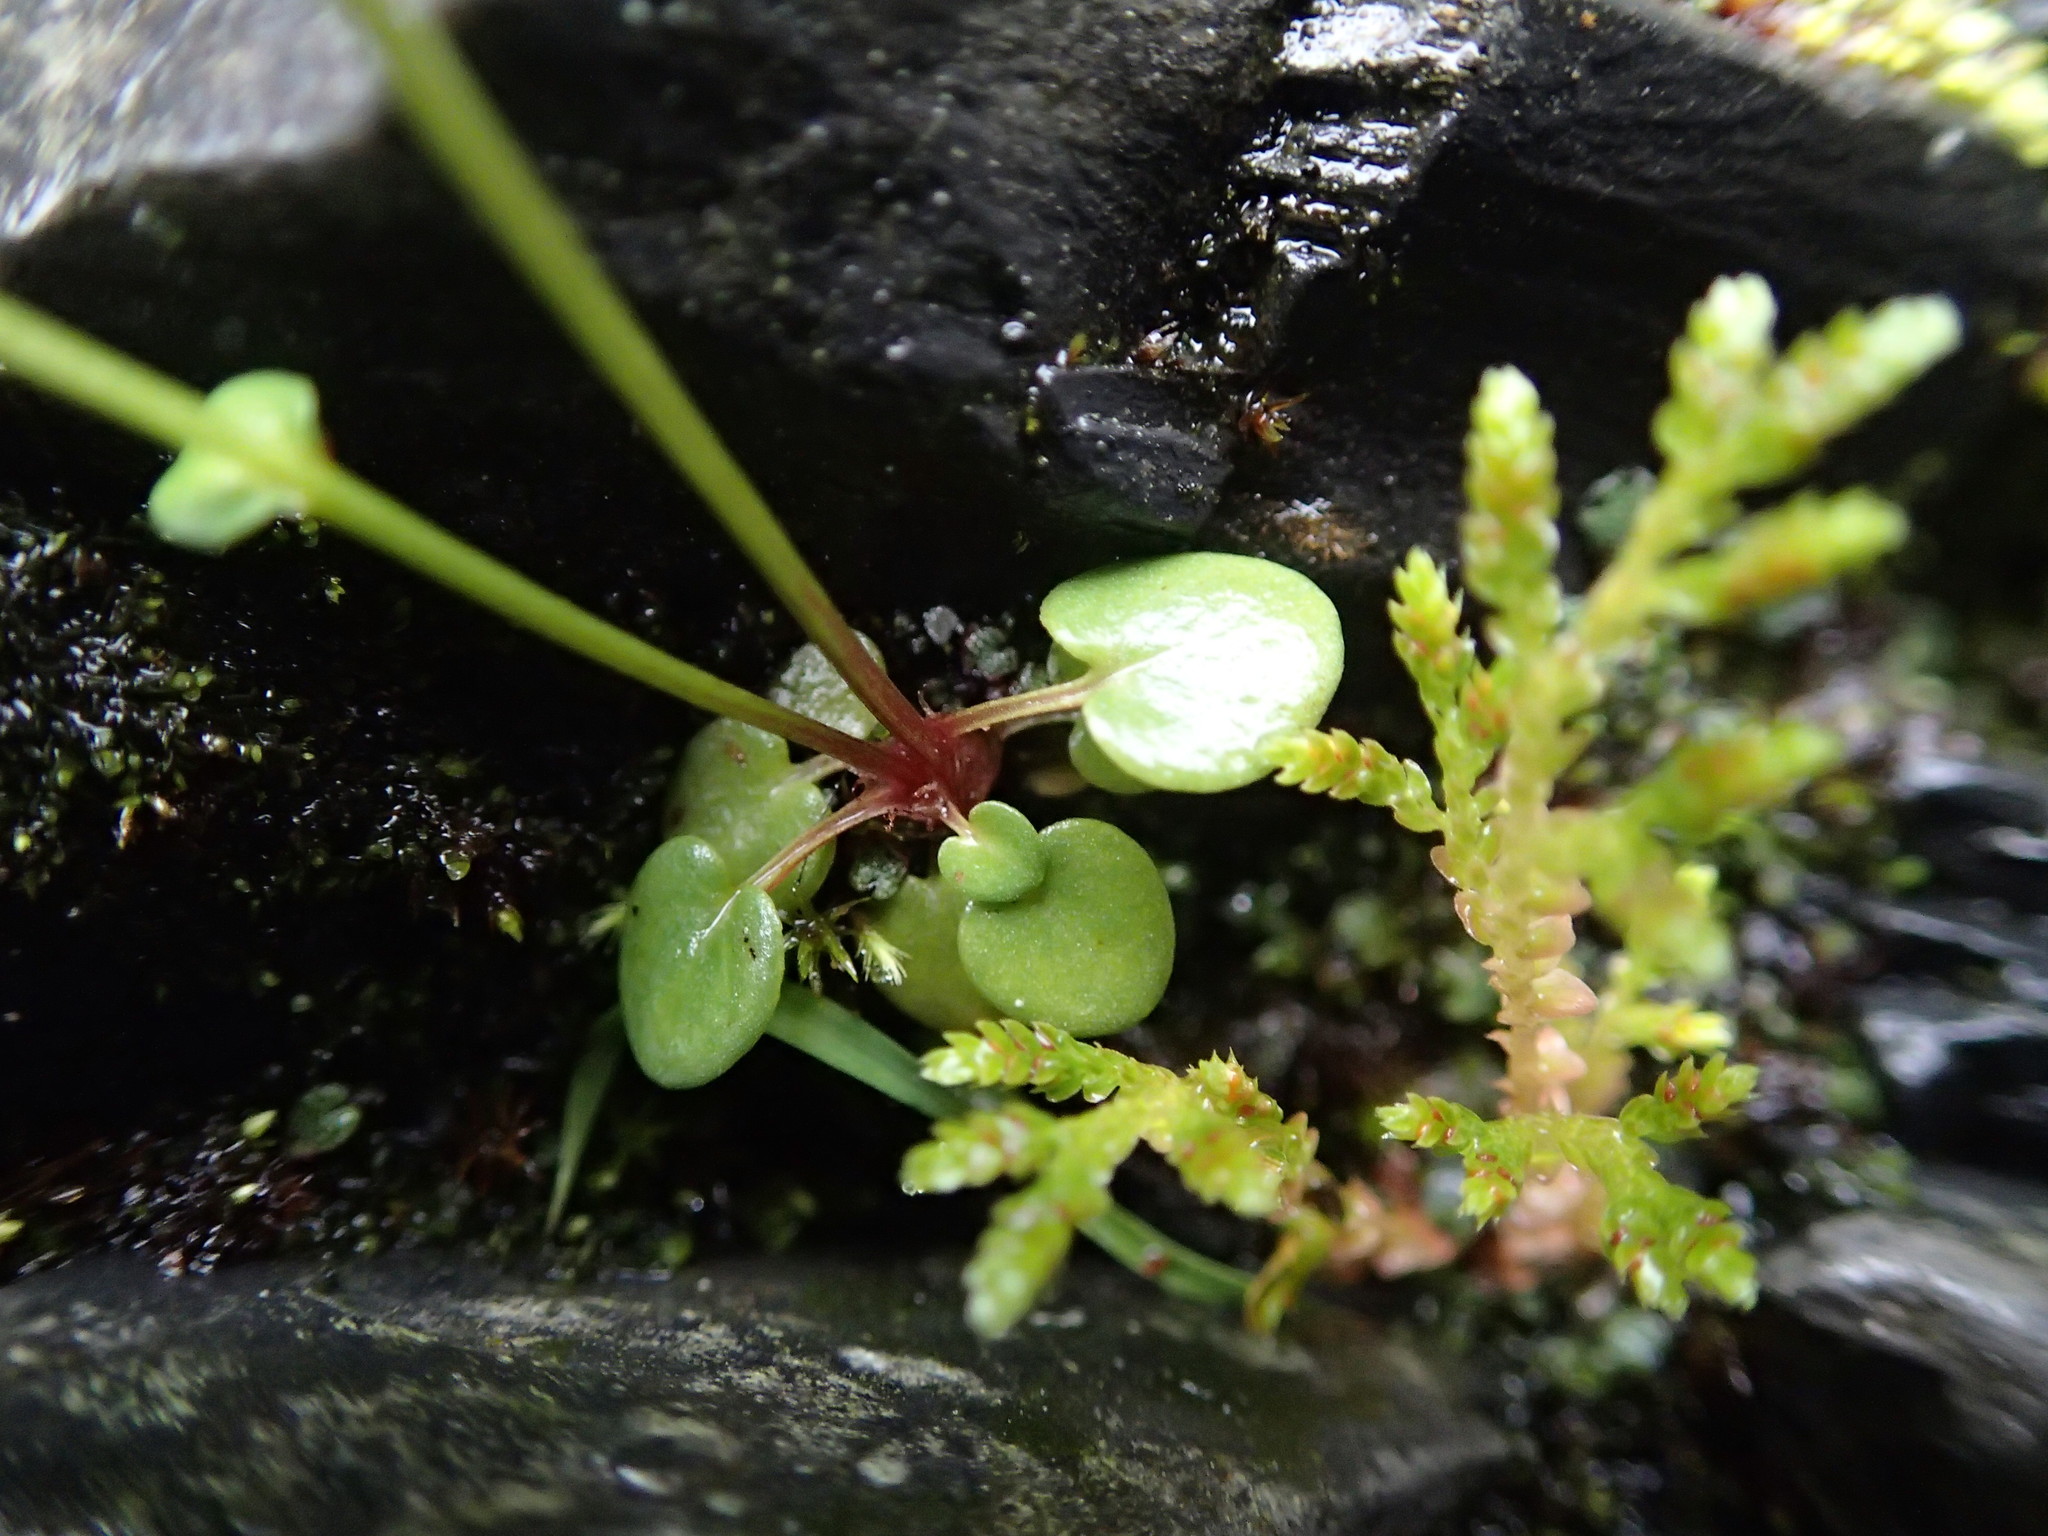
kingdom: Plantae
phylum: Tracheophyta
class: Magnoliopsida
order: Celastrales
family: Parnassiaceae
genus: Parnassia
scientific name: Parnassia palustris
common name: Grass-of-parnassus
